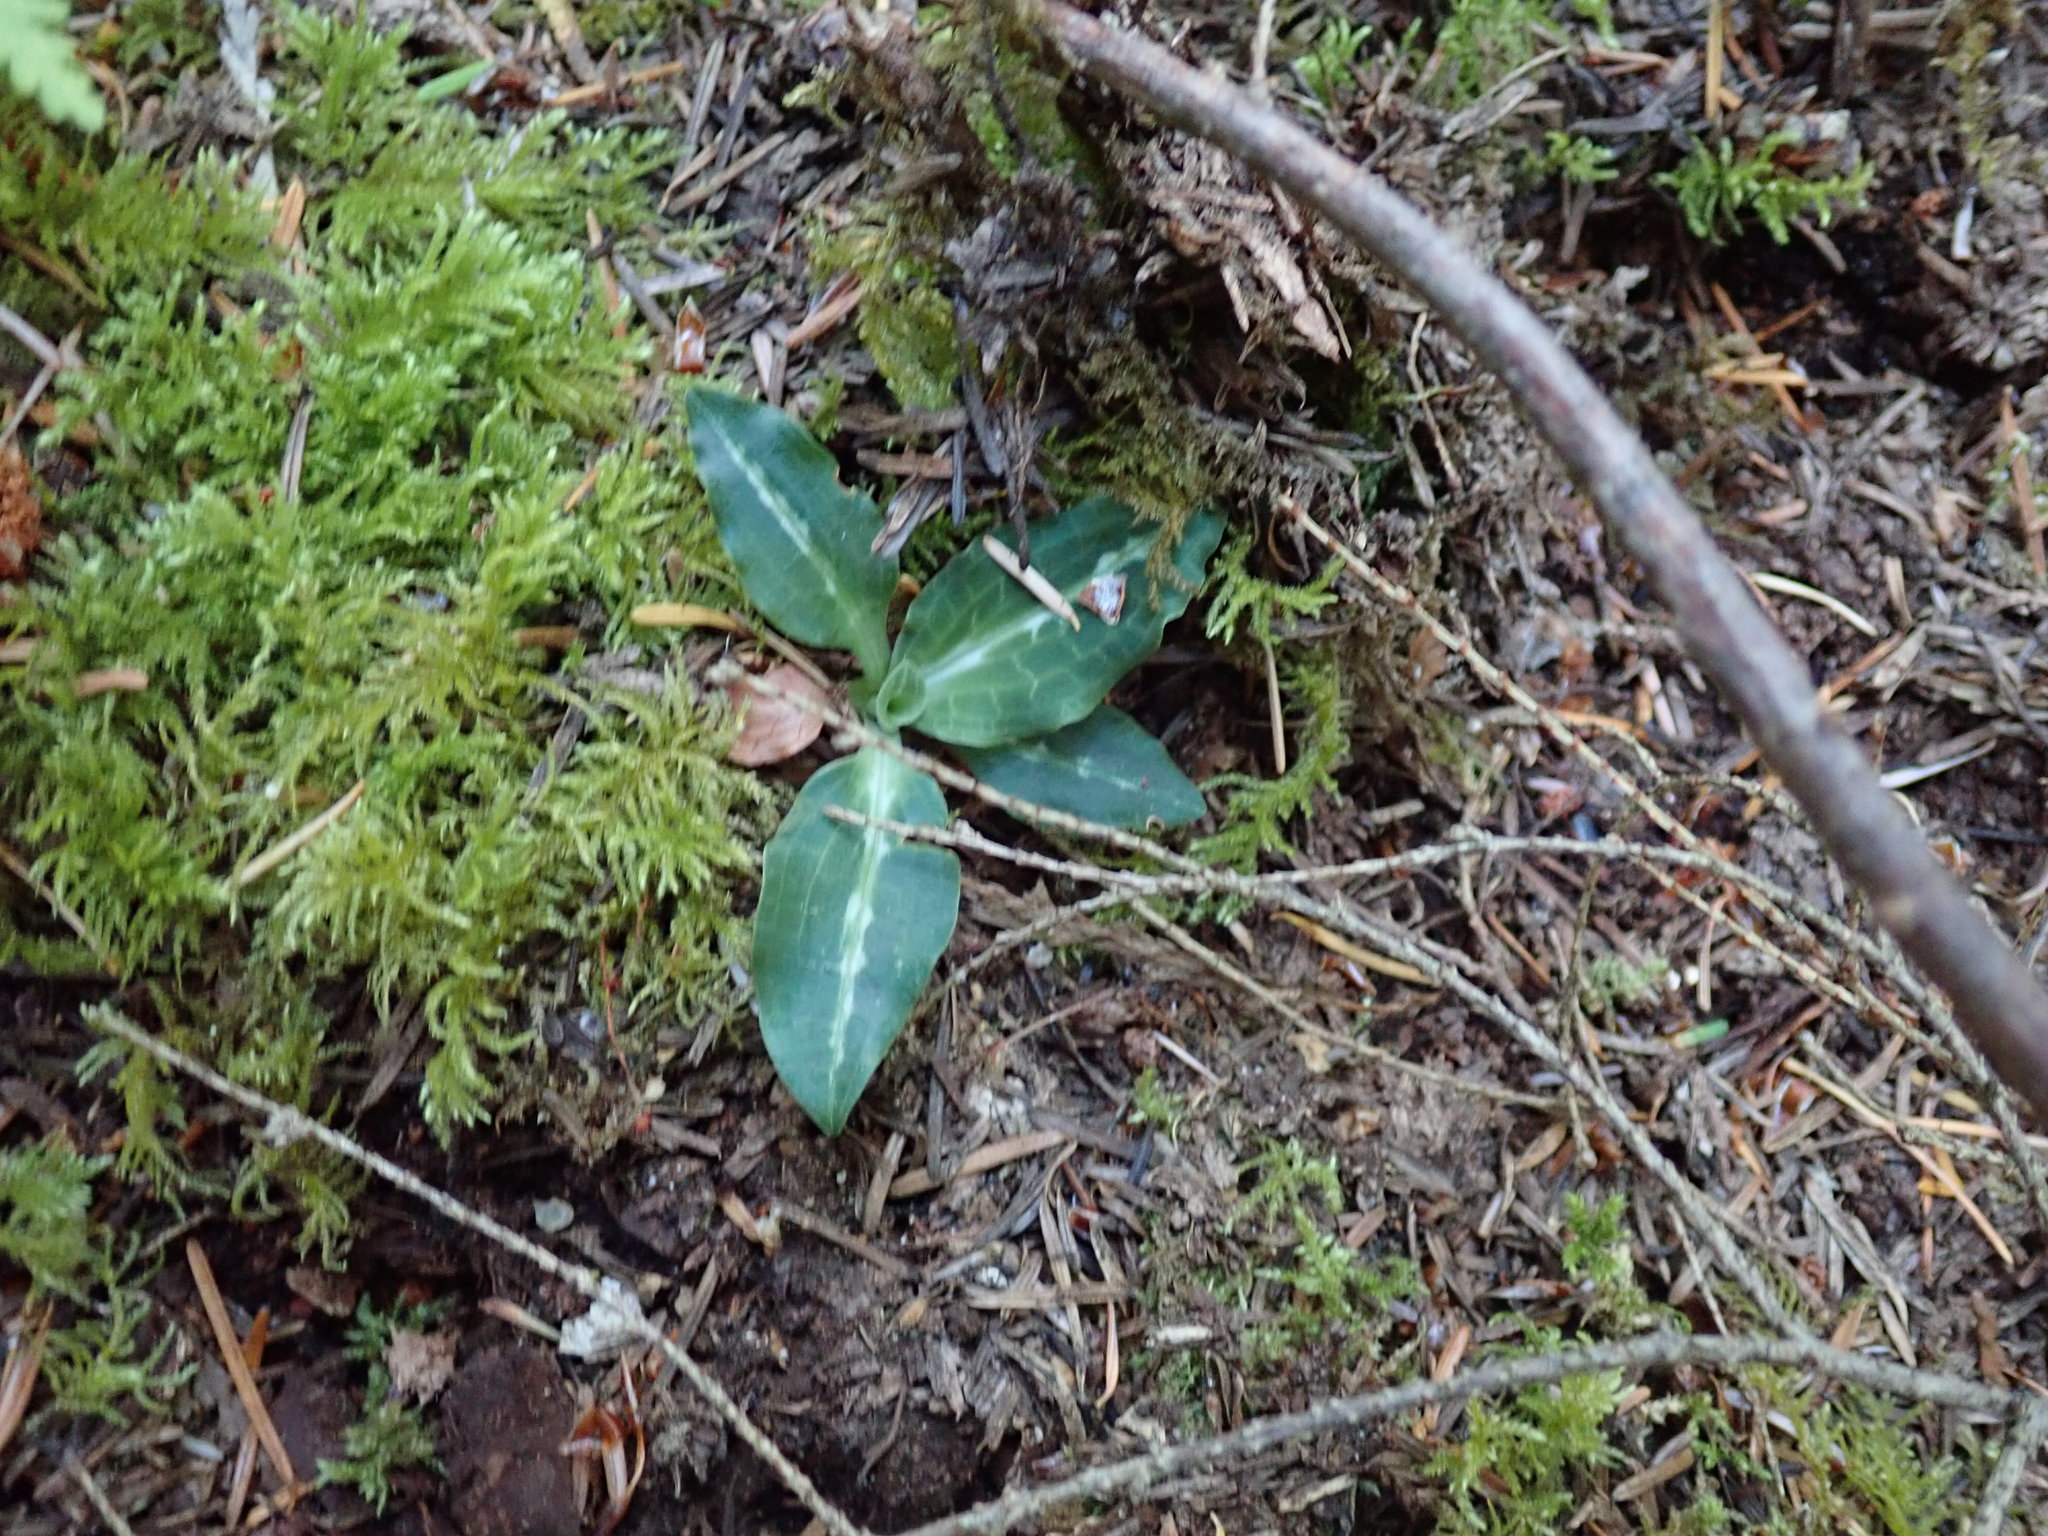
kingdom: Plantae
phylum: Tracheophyta
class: Liliopsida
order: Asparagales
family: Orchidaceae
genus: Goodyera
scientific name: Goodyera oblongifolia
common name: Giant rattlesnake-plantain
